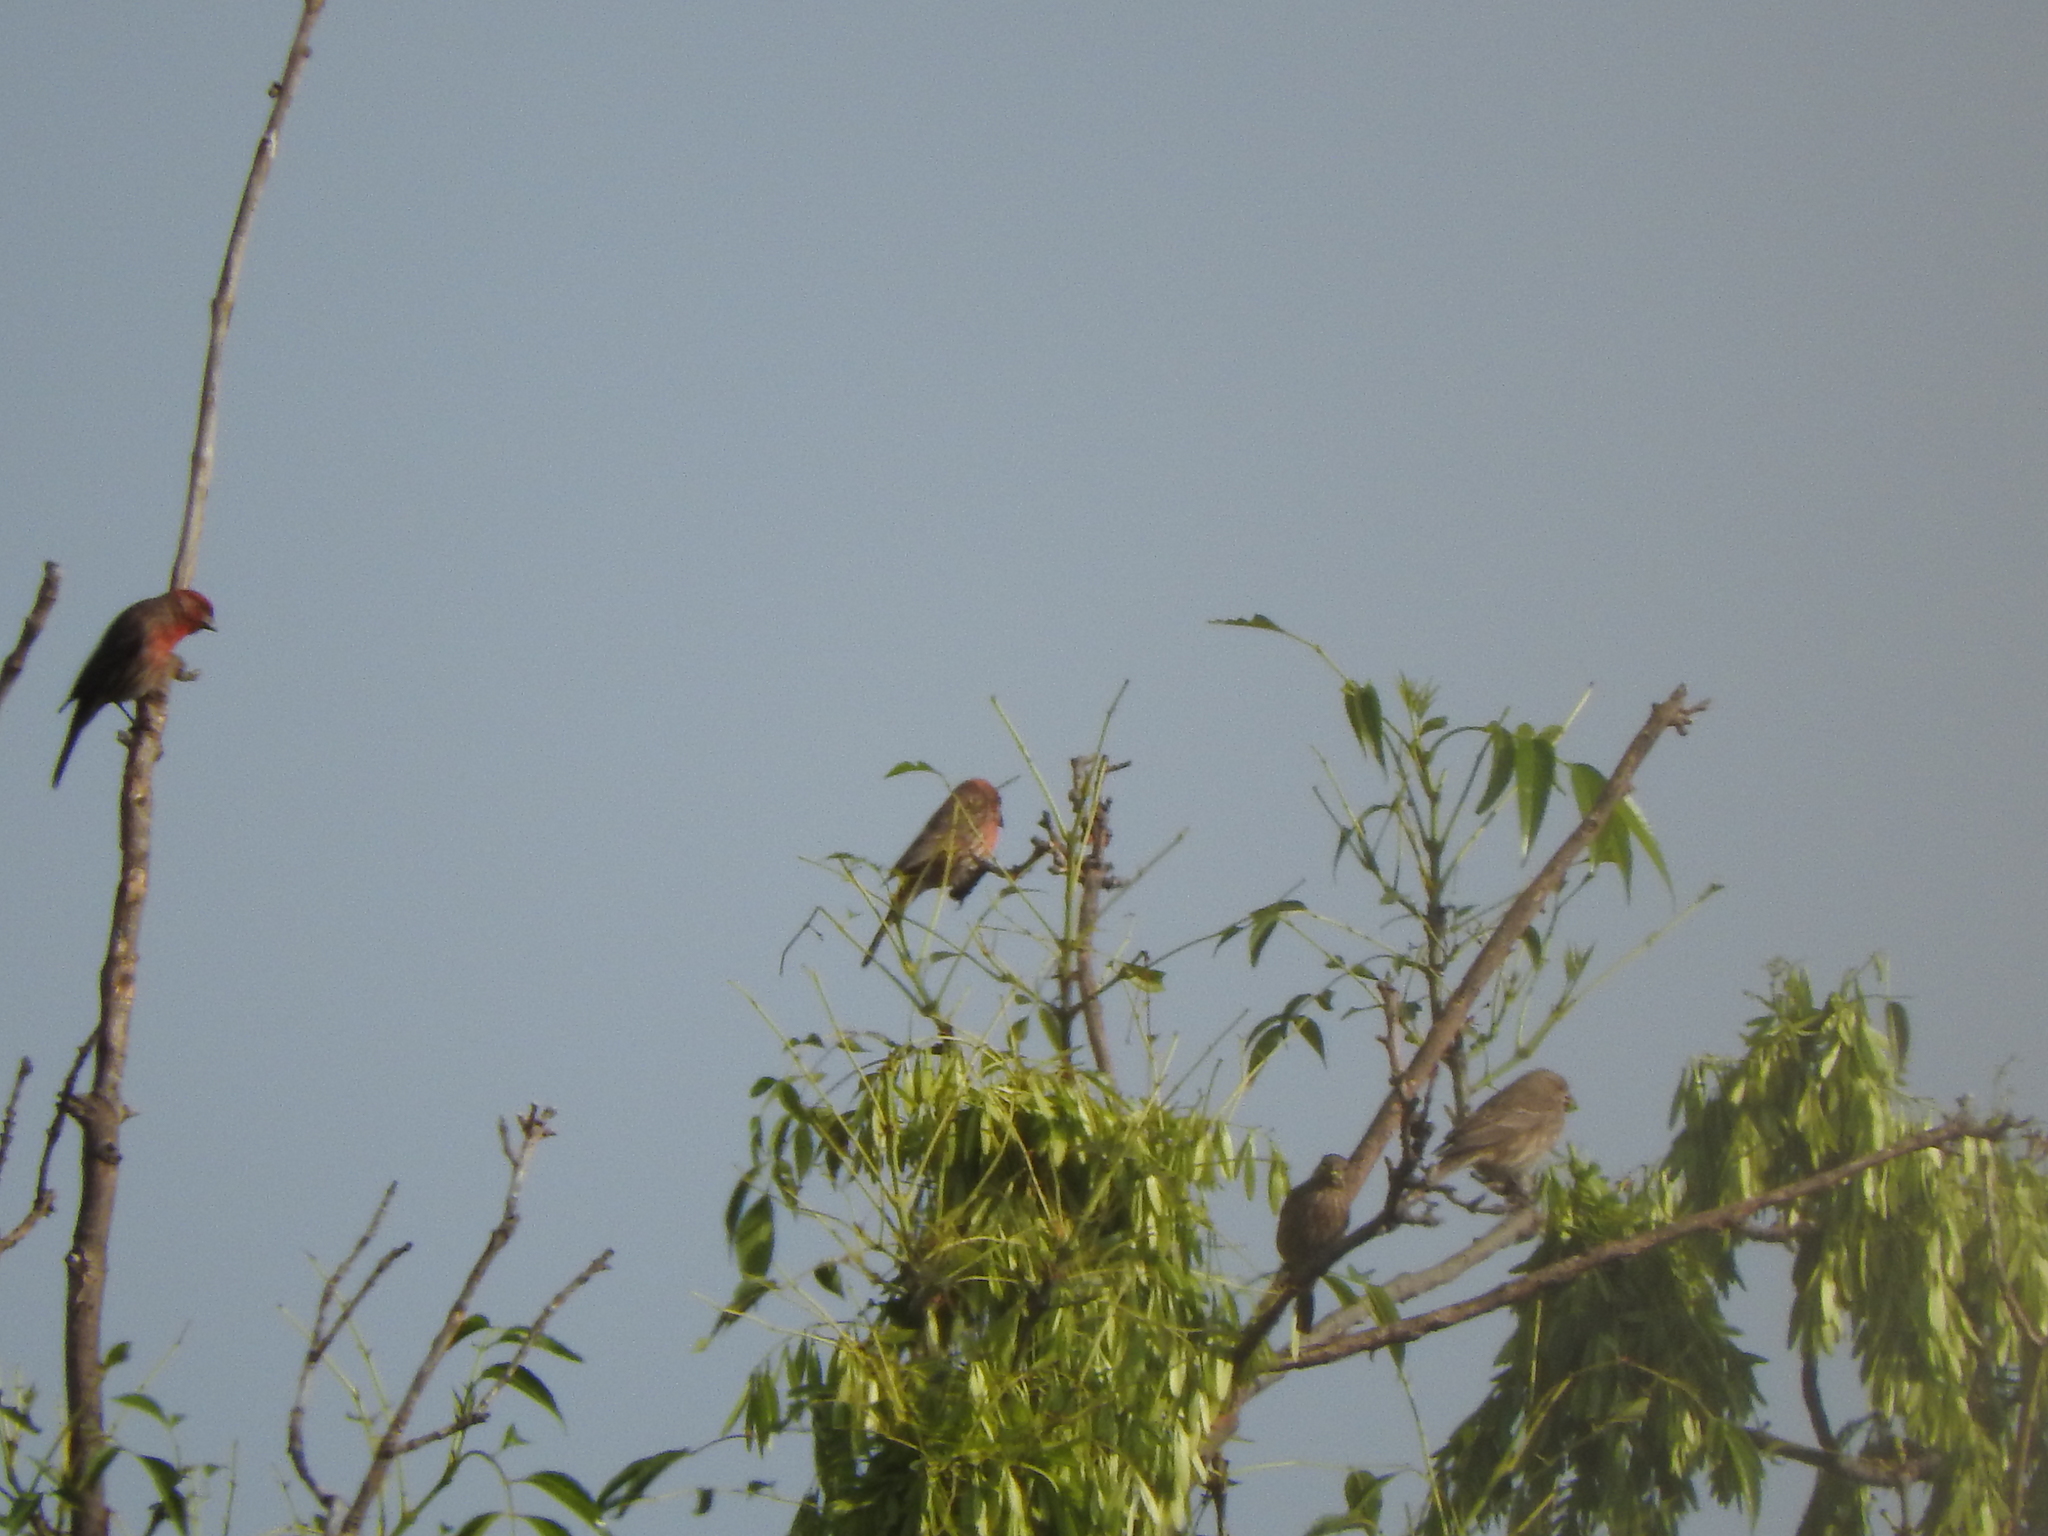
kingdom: Animalia
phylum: Chordata
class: Aves
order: Passeriformes
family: Fringillidae
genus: Haemorhous
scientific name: Haemorhous mexicanus
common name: House finch
